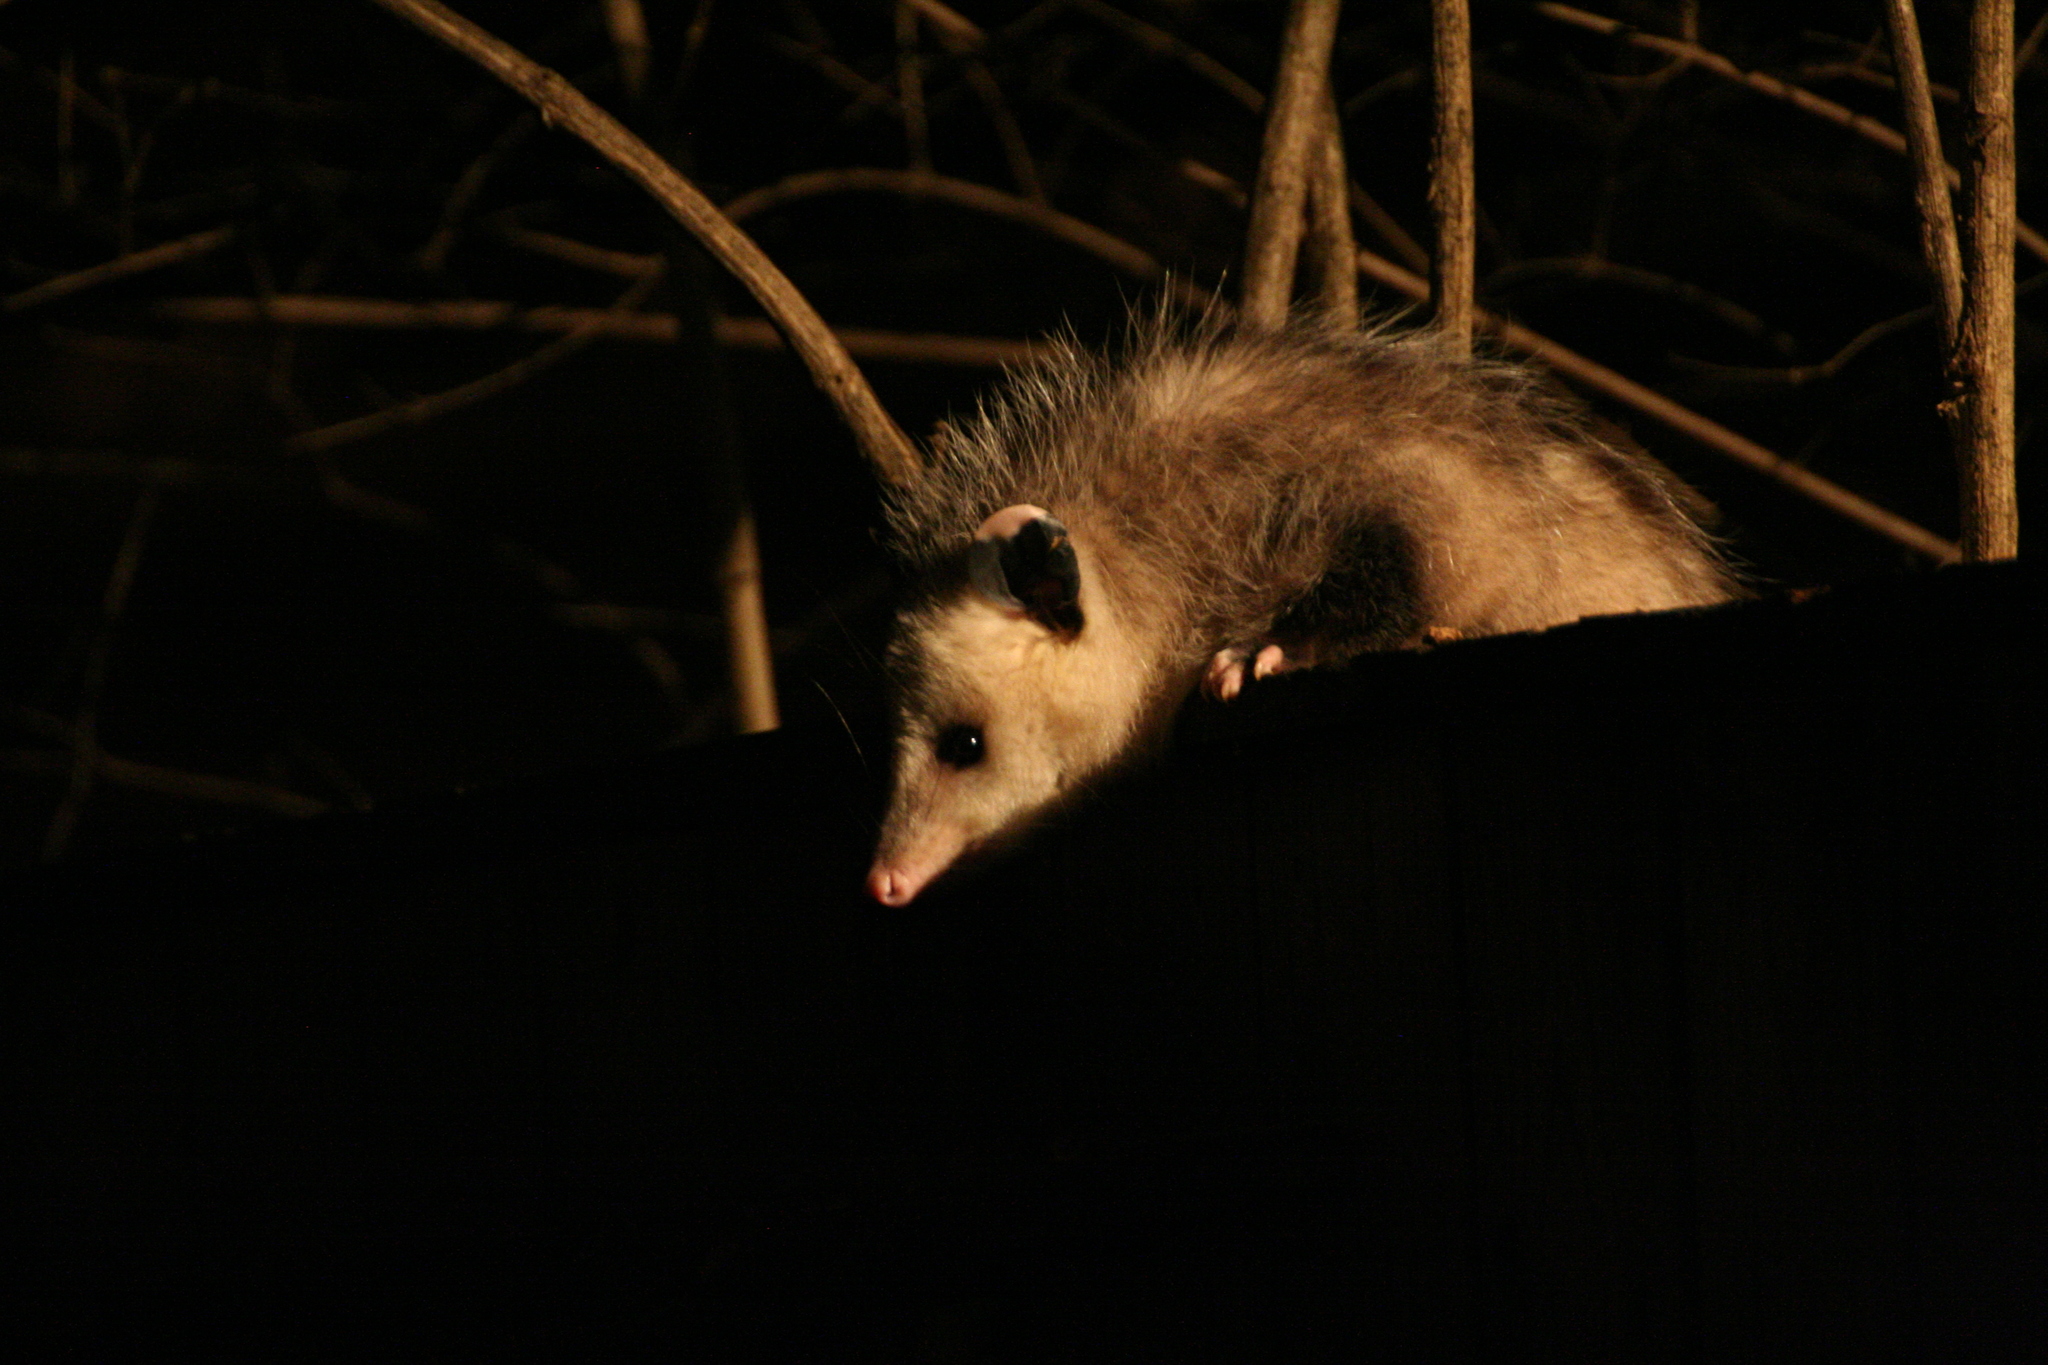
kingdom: Animalia
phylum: Chordata
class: Mammalia
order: Didelphimorphia
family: Didelphidae
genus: Didelphis
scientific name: Didelphis virginiana
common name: Virginia opossum
